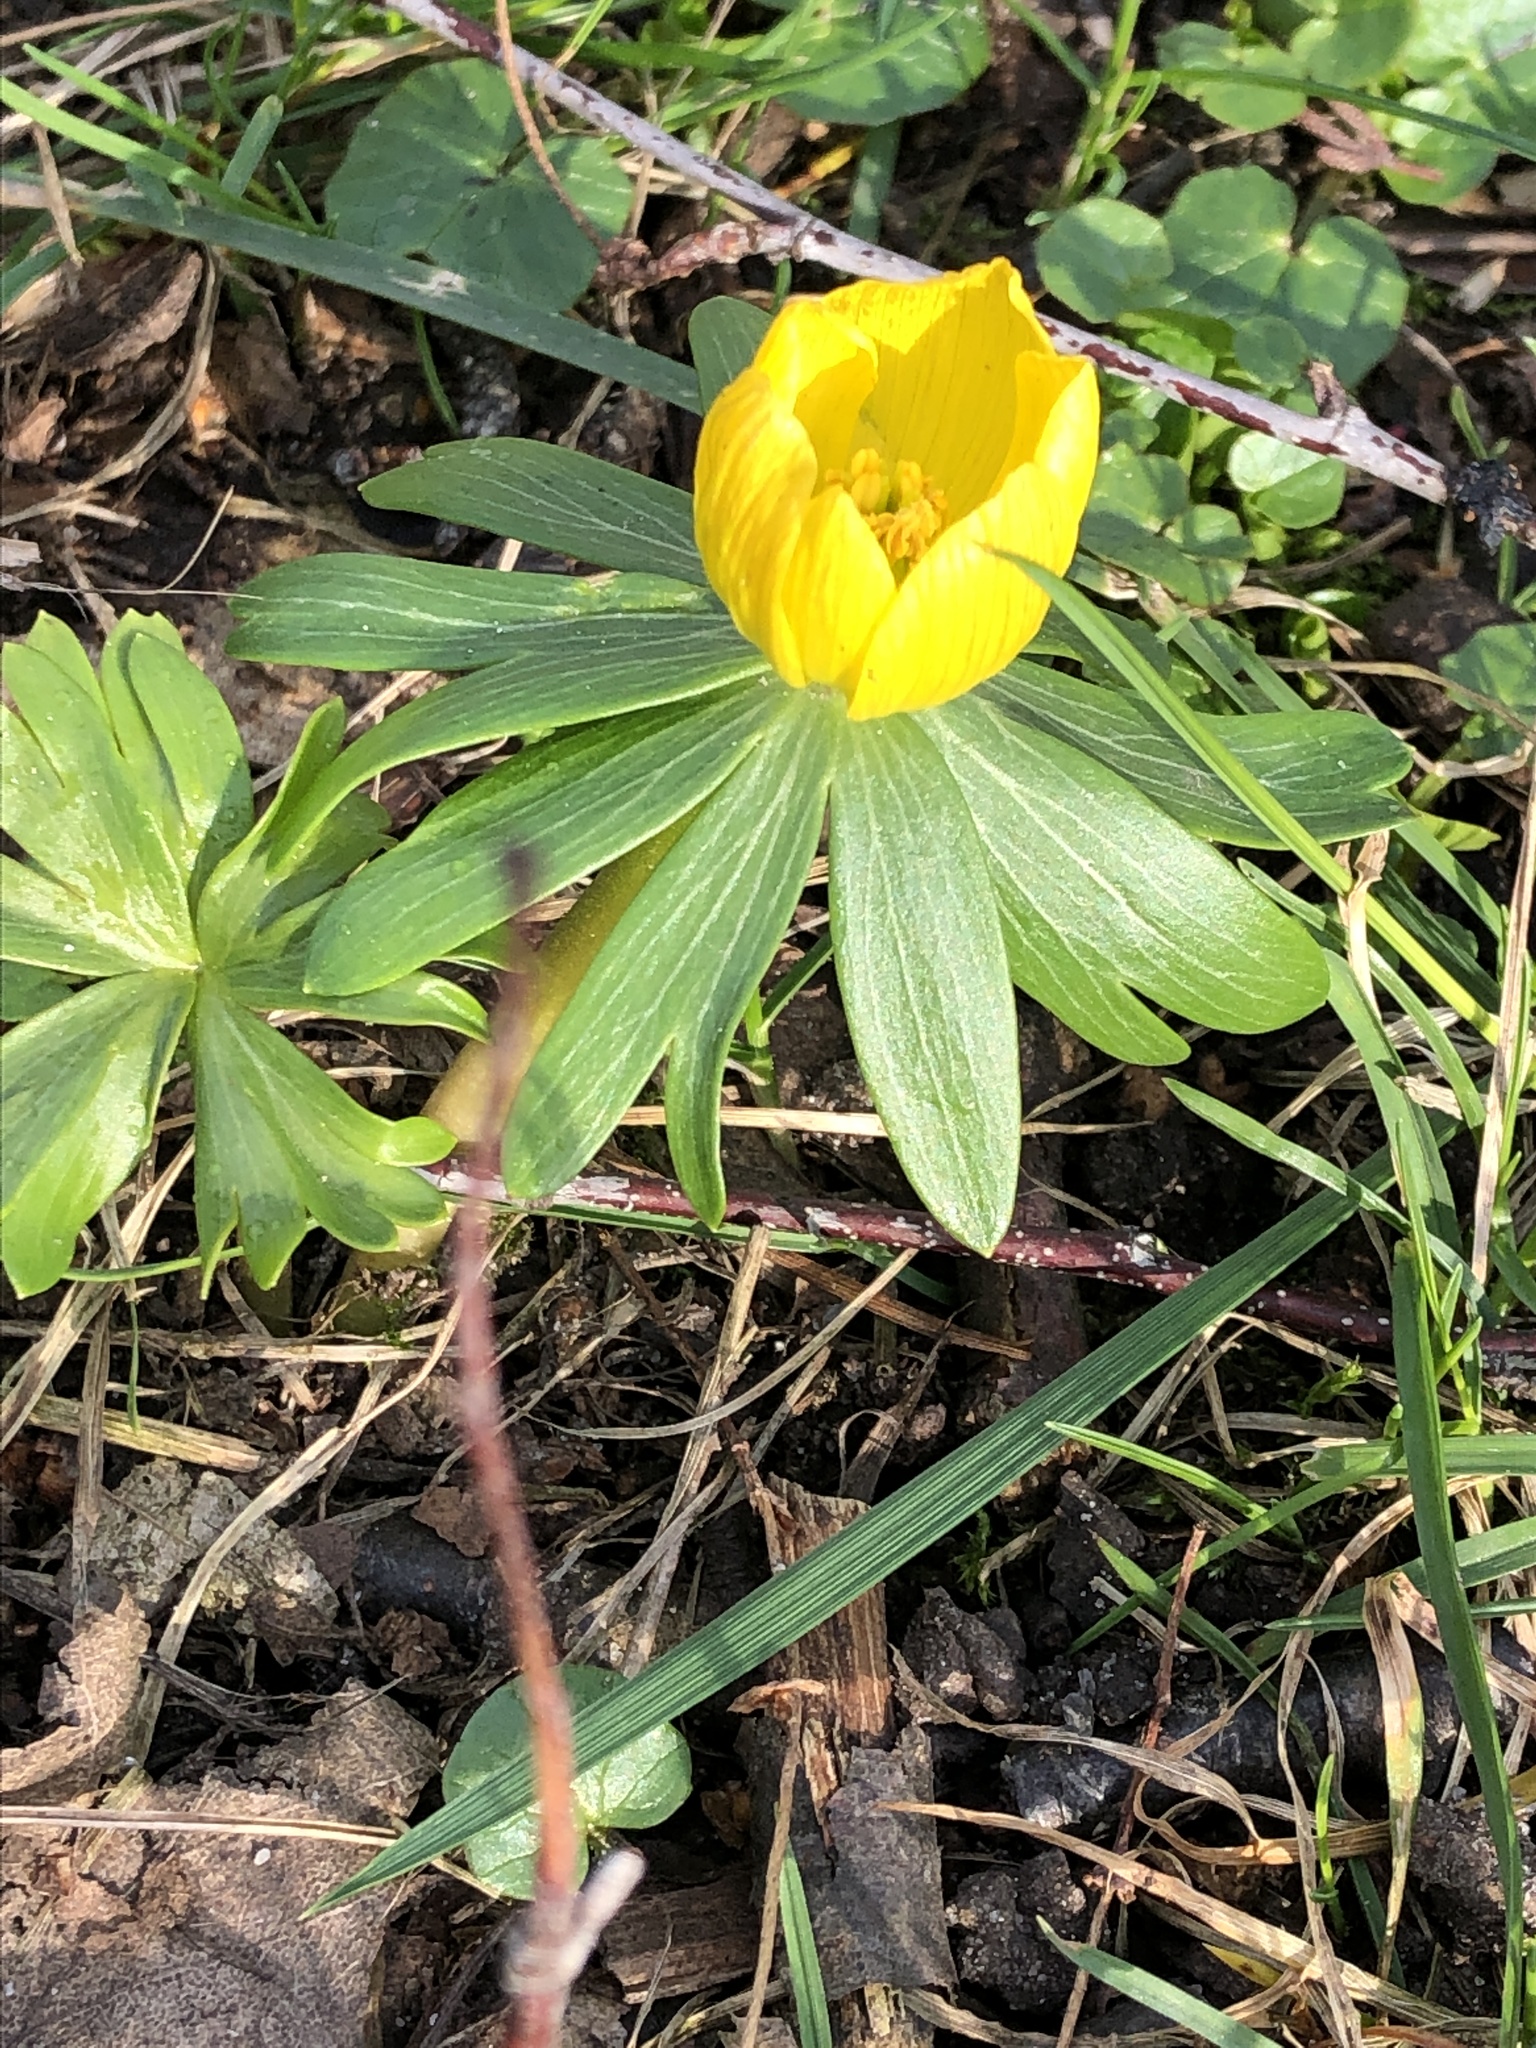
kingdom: Plantae
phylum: Tracheophyta
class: Magnoliopsida
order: Ranunculales
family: Ranunculaceae
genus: Eranthis
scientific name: Eranthis hyemalis
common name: Winter aconite
